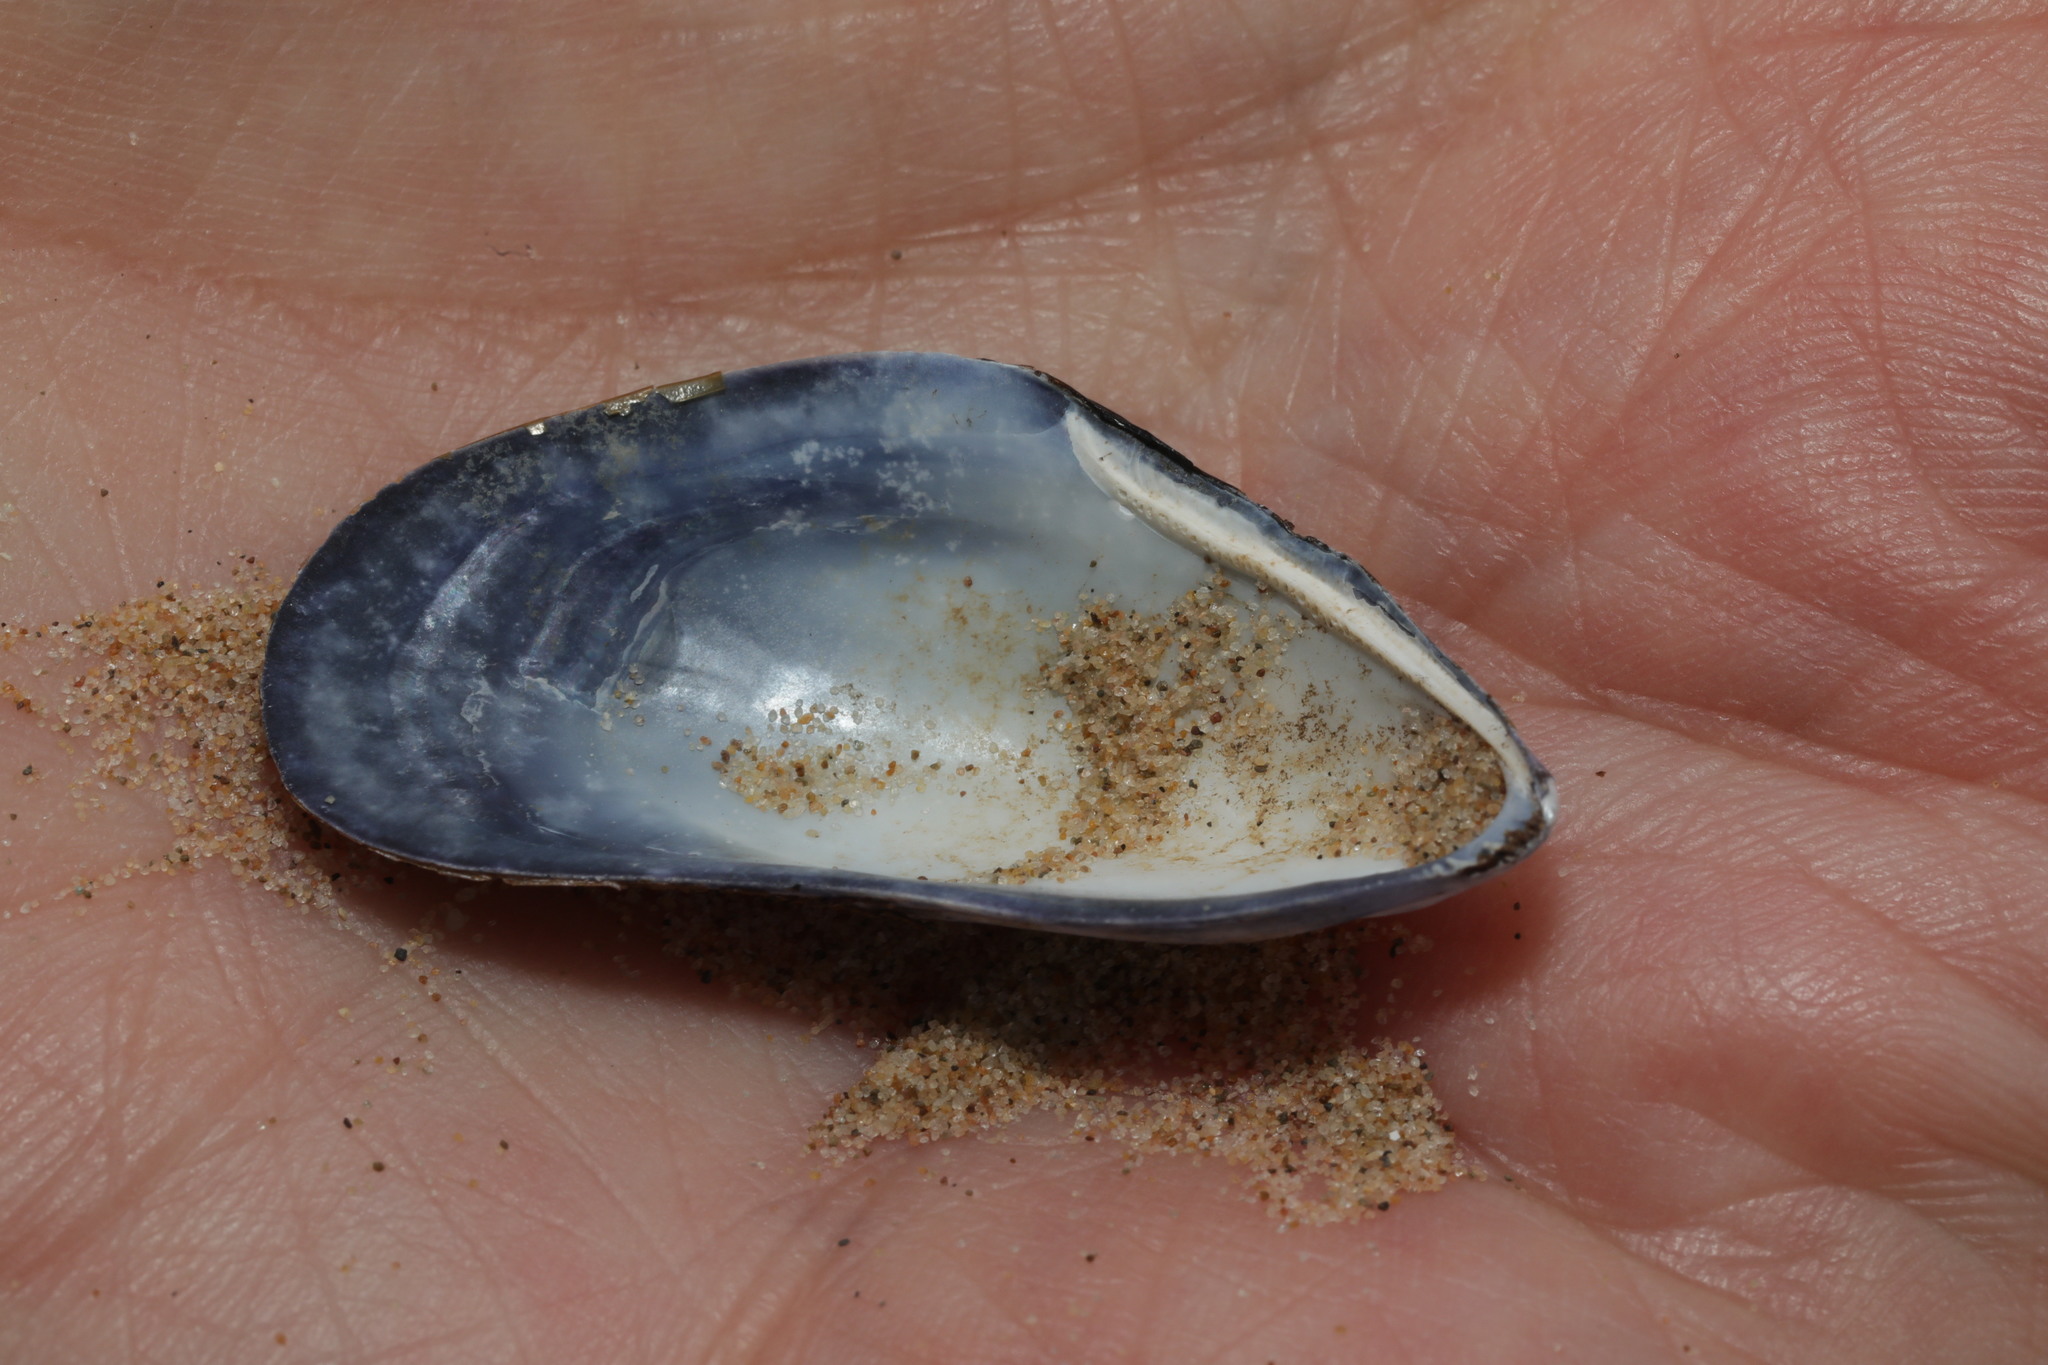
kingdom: Animalia
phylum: Mollusca
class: Bivalvia
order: Mytilida
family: Mytilidae
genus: Mytilus
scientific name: Mytilus edulis
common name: Blue mussel
